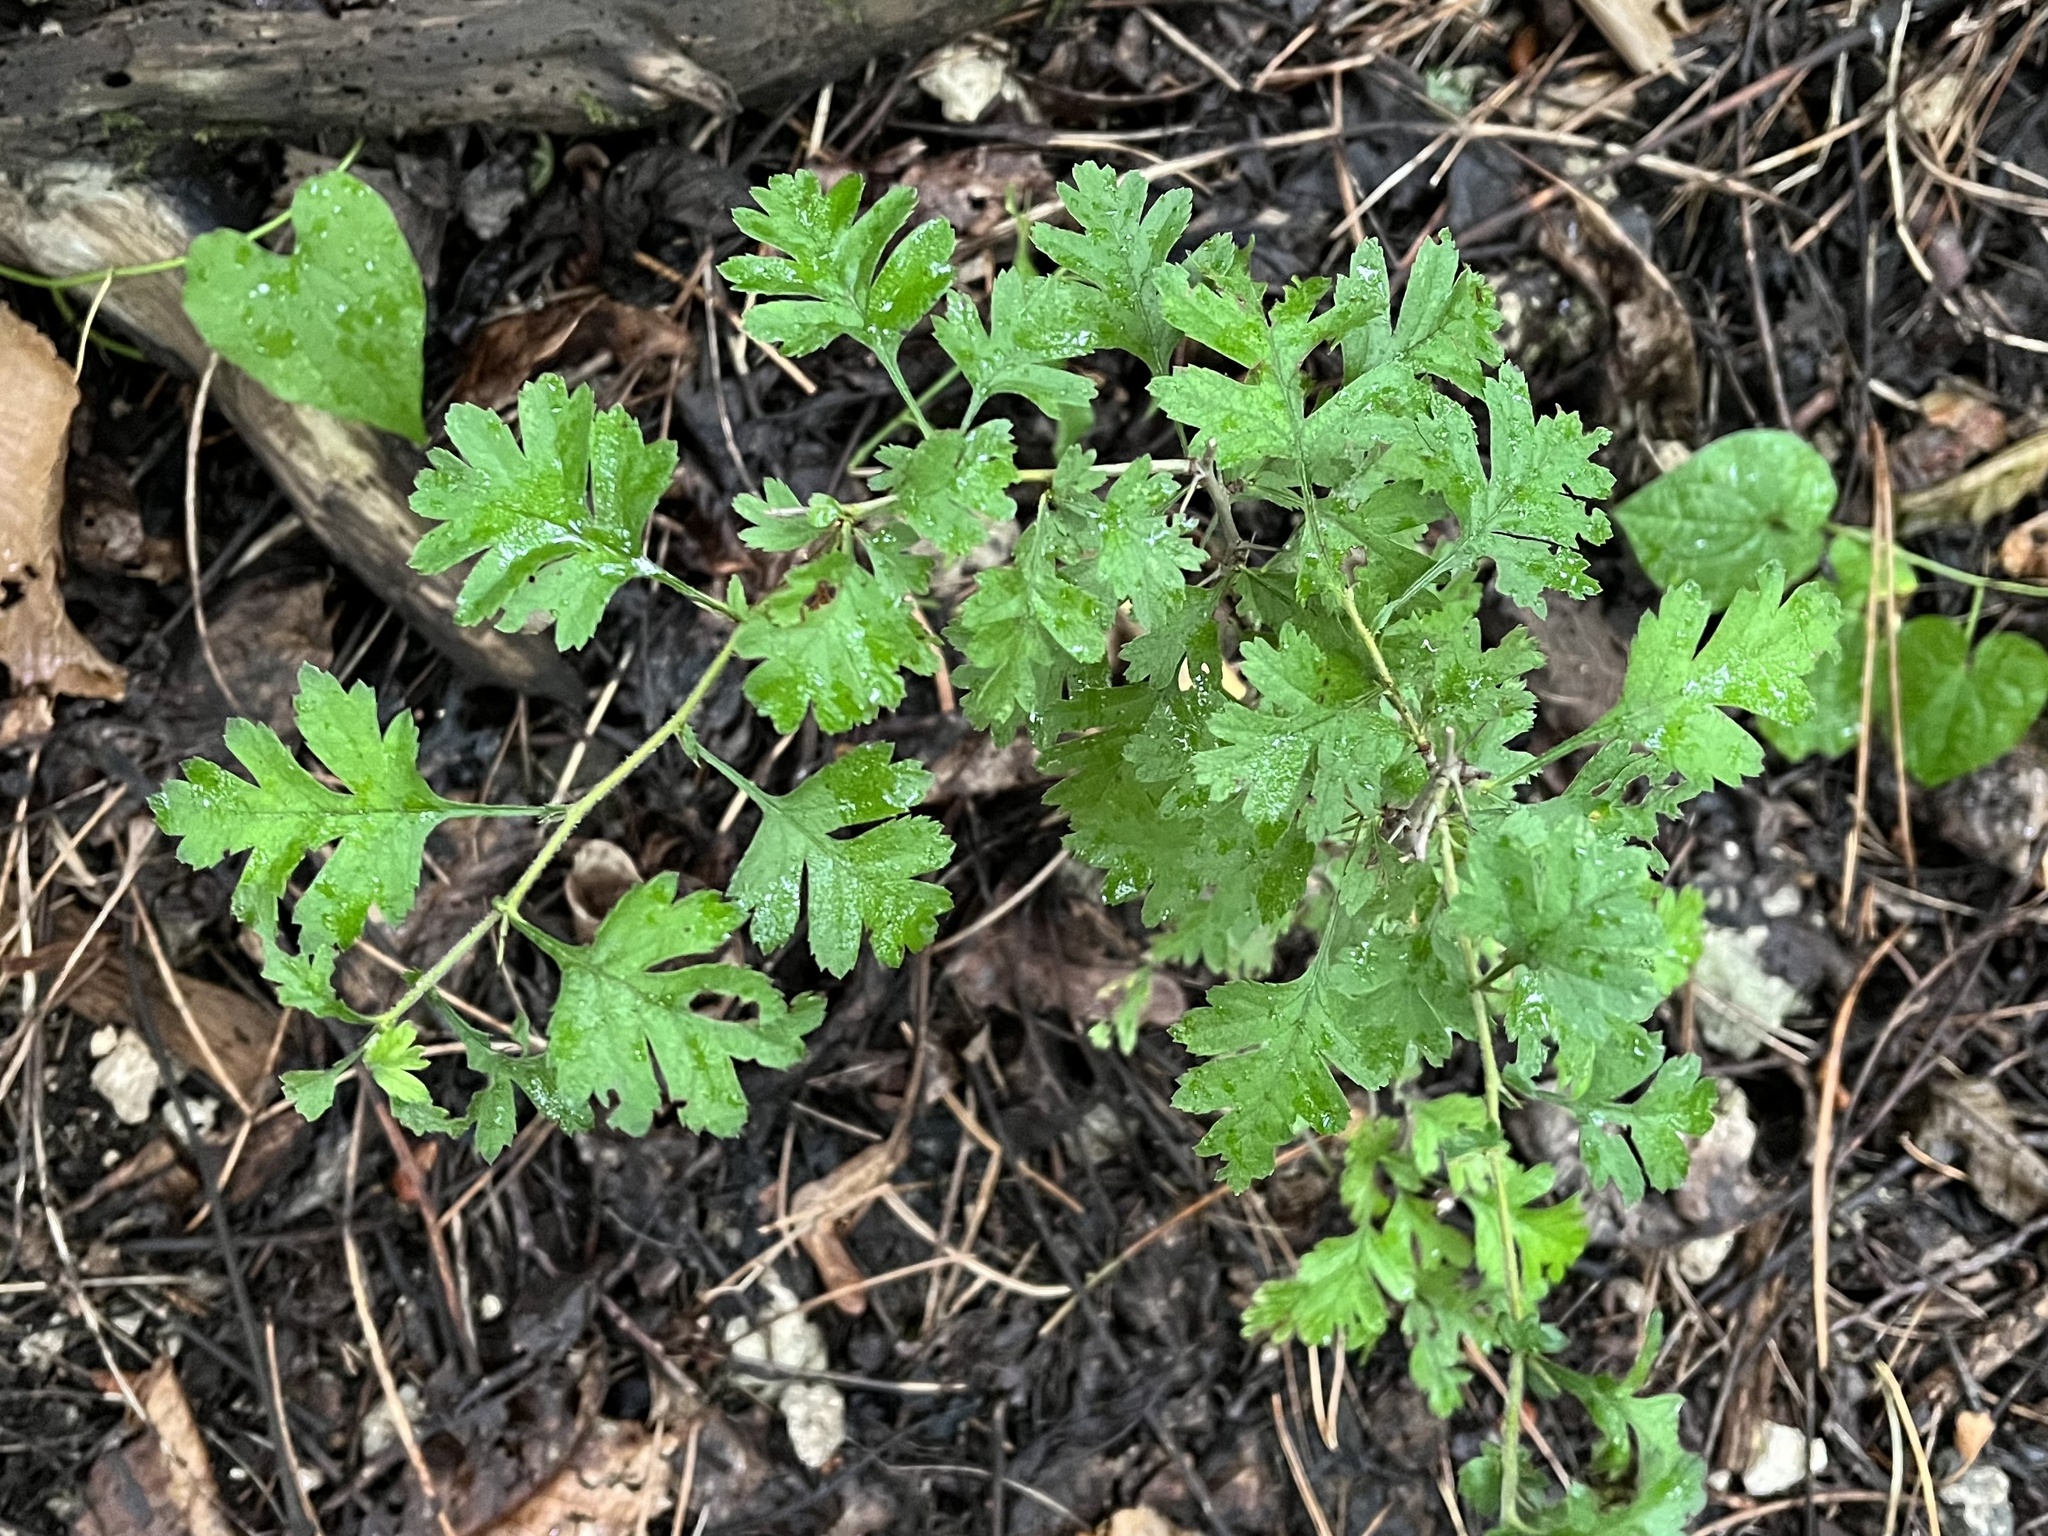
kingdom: Plantae
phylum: Tracheophyta
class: Magnoliopsida
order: Rosales
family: Rosaceae
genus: Crataegus
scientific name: Crataegus monogyna
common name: Hawthorn
